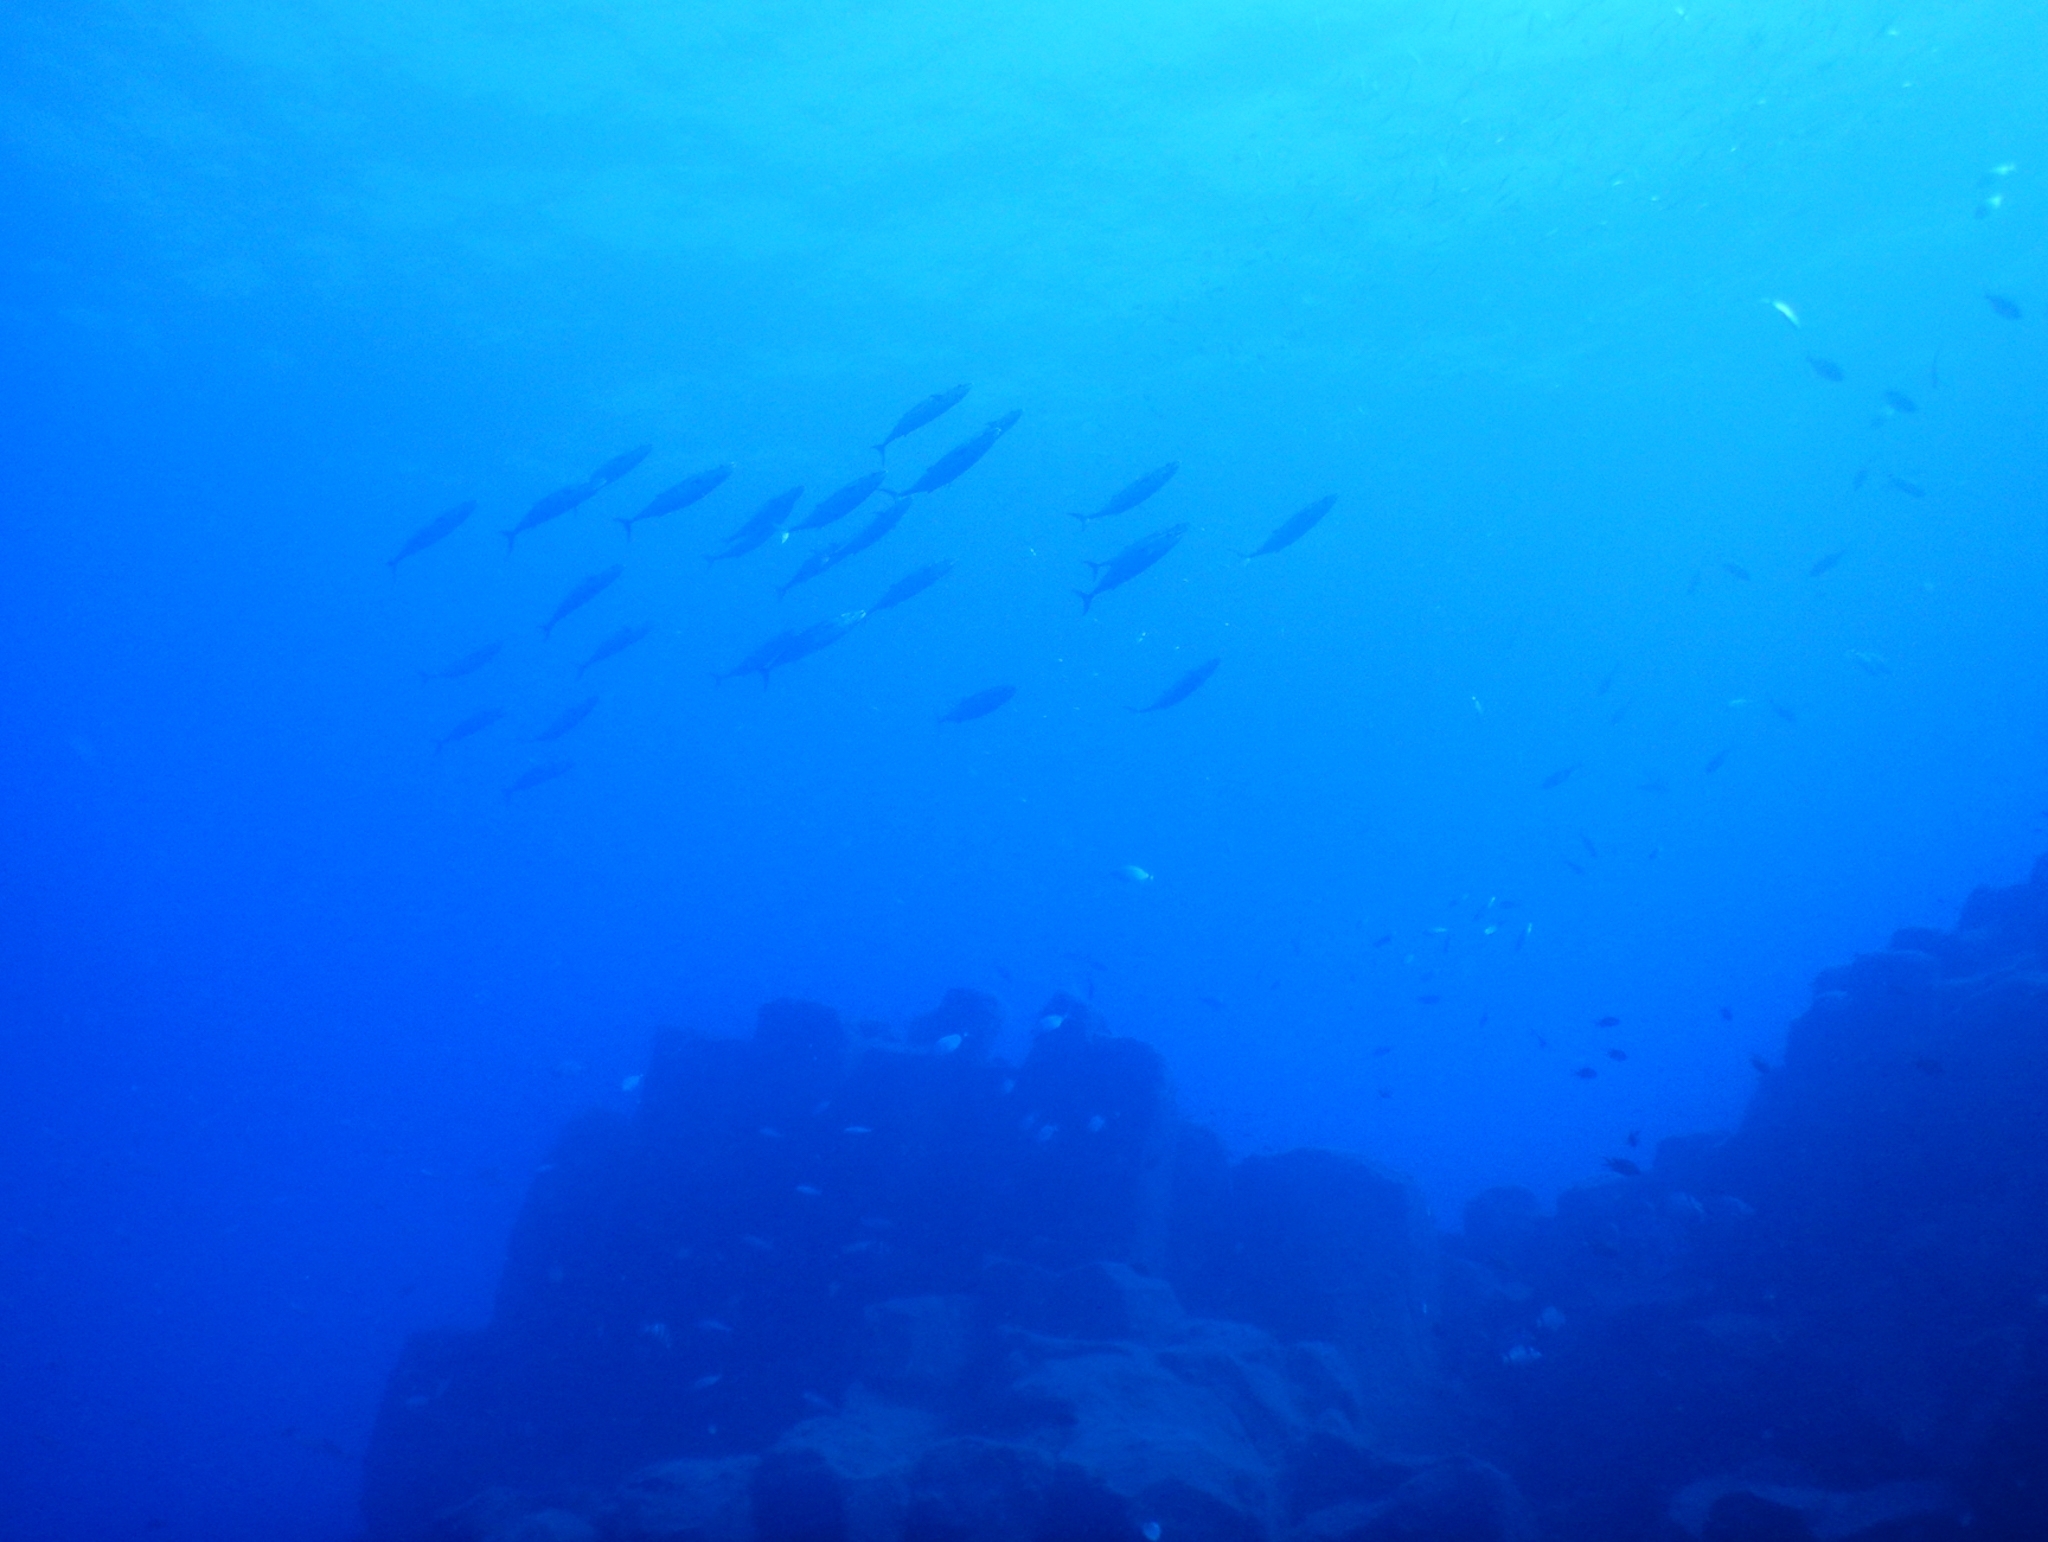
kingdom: Animalia
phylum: Chordata
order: Perciformes
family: Scombridae
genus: Sarda
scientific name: Sarda sarda
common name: Atlantic bonito
